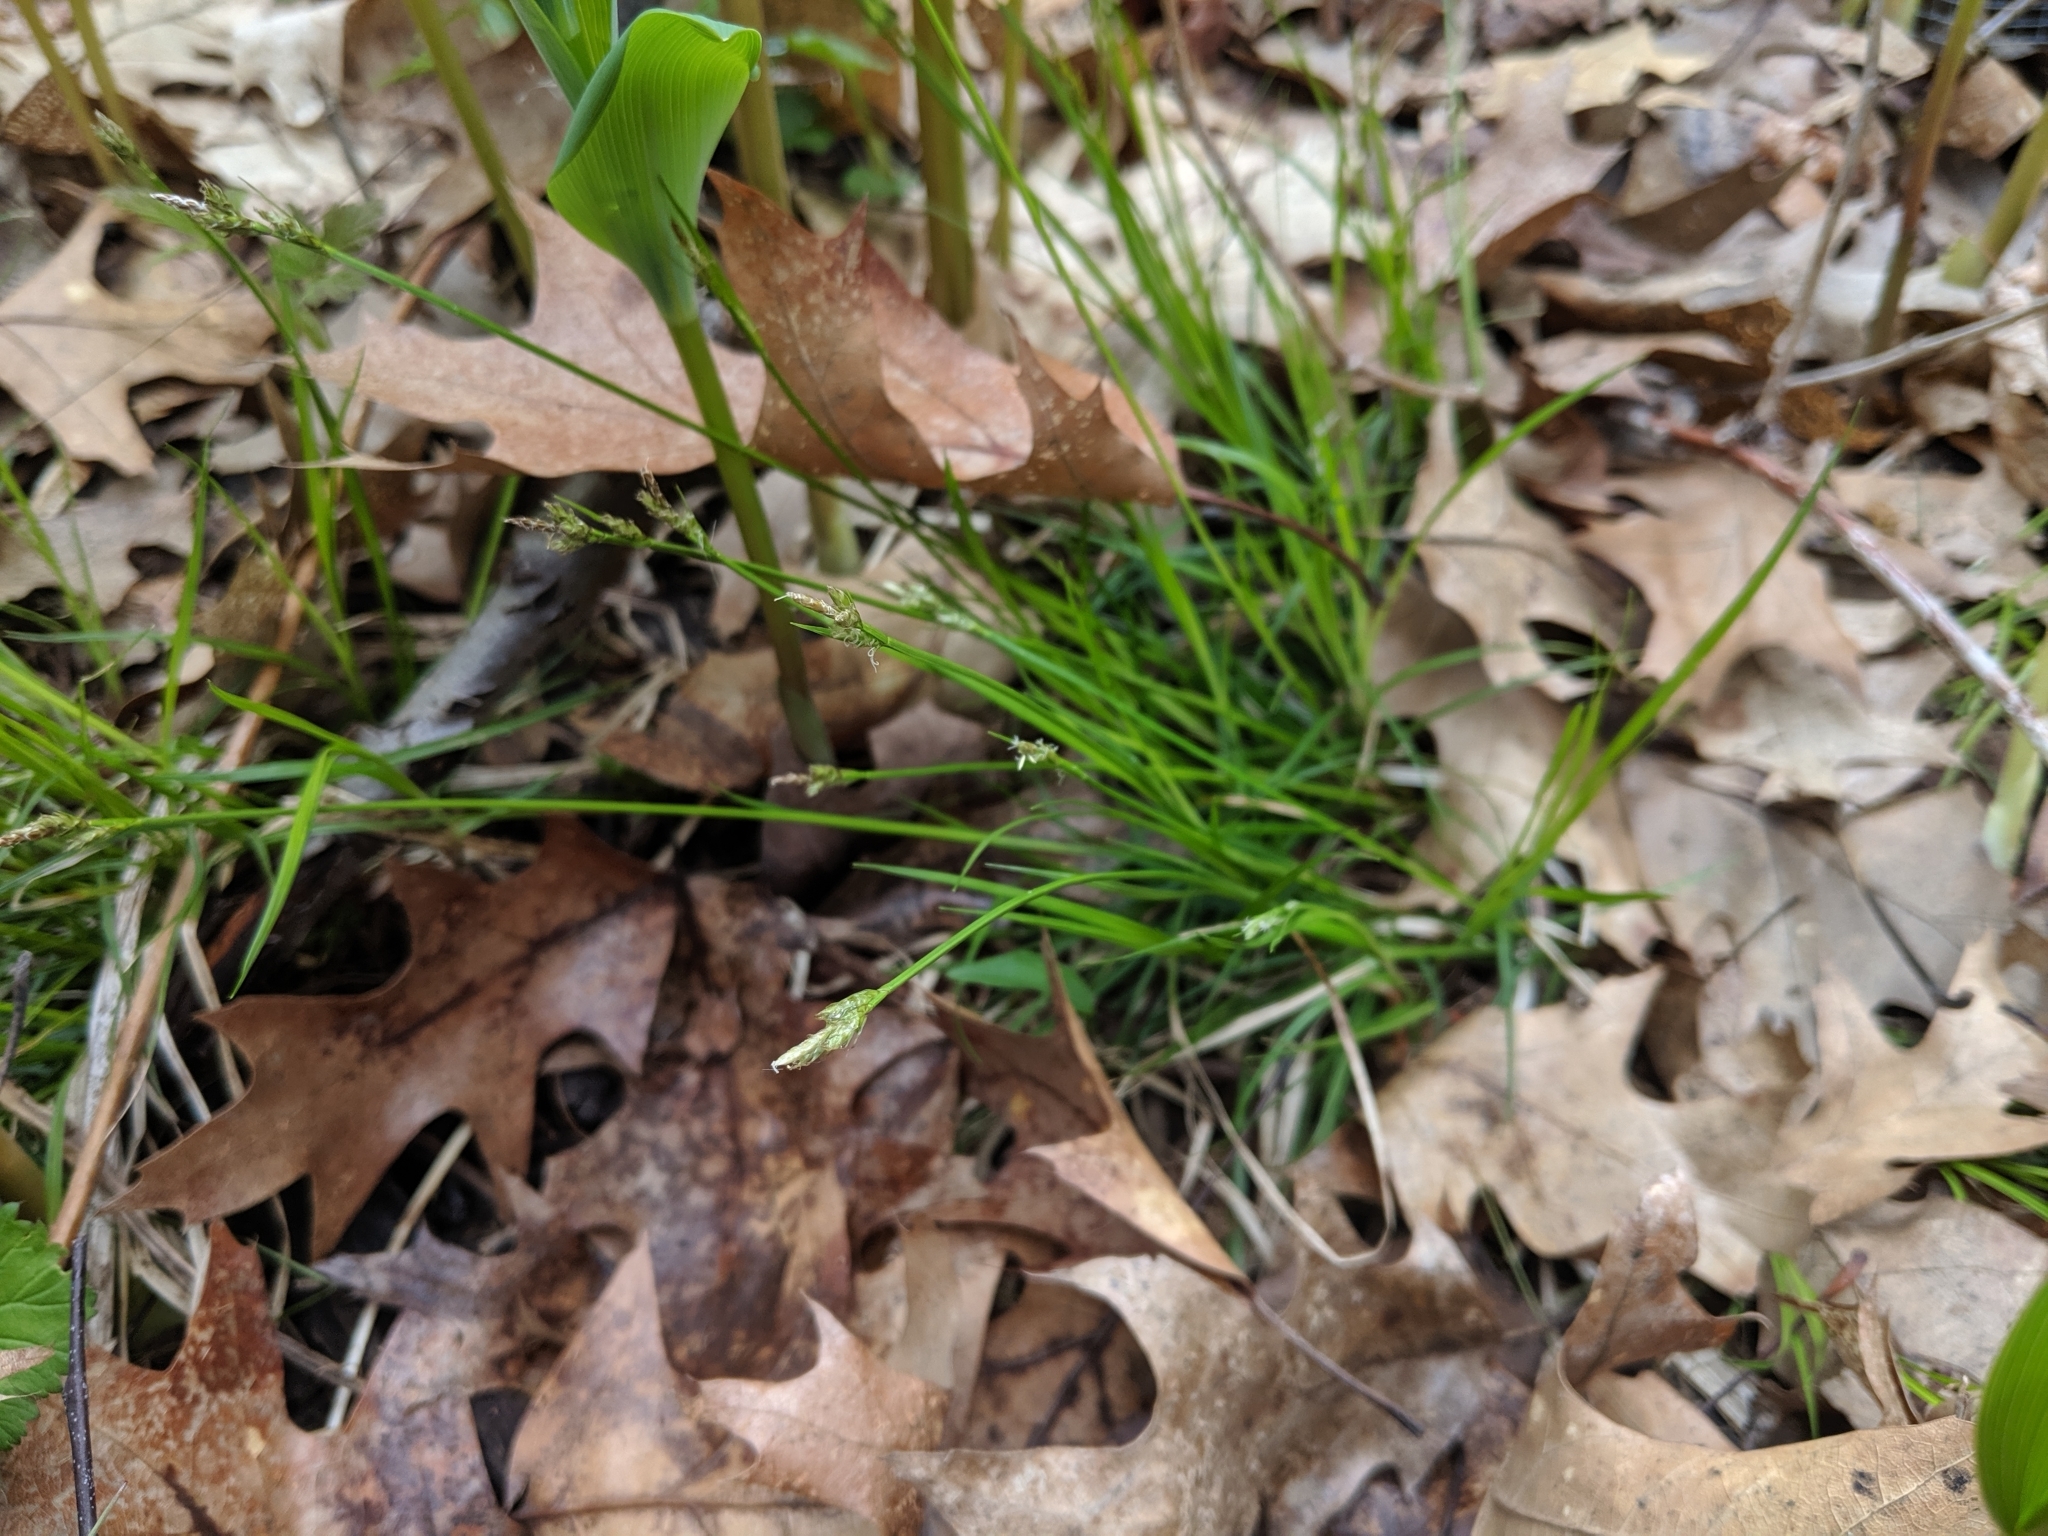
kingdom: Plantae
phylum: Tracheophyta
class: Liliopsida
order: Poales
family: Cyperaceae
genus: Carex
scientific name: Carex communis
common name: Colonial oak sedge
